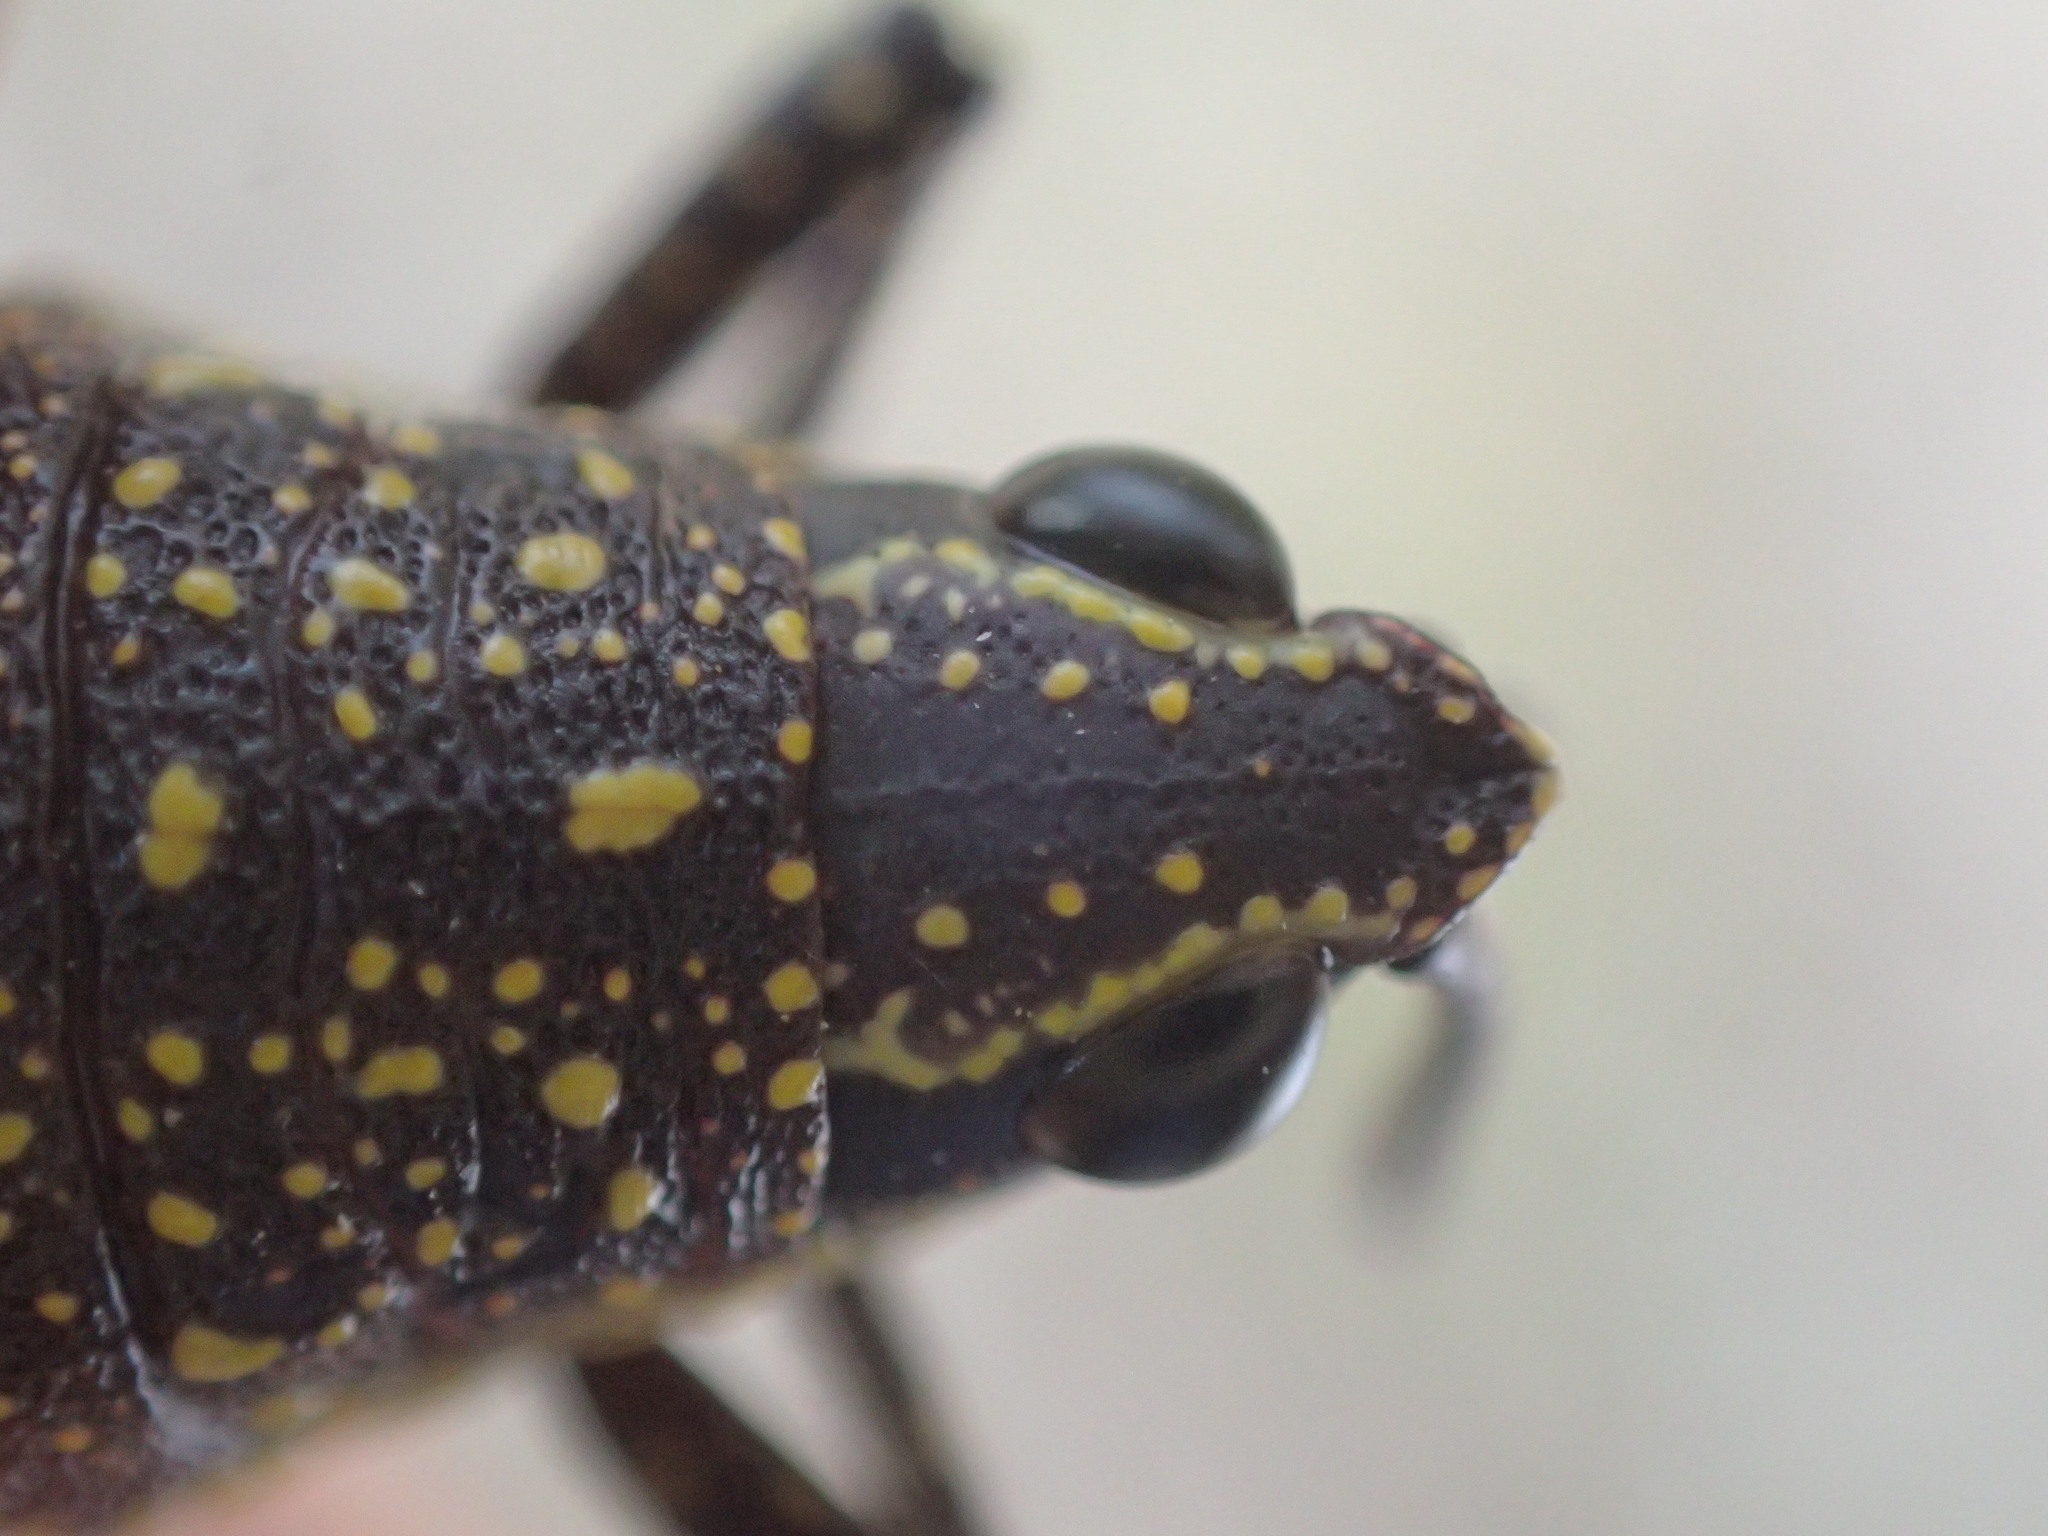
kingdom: Animalia
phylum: Arthropoda
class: Insecta
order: Orthoptera
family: Pyrgomorphidae
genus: Monistria
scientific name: Monistria concinna
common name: Southern pyrgomorph
